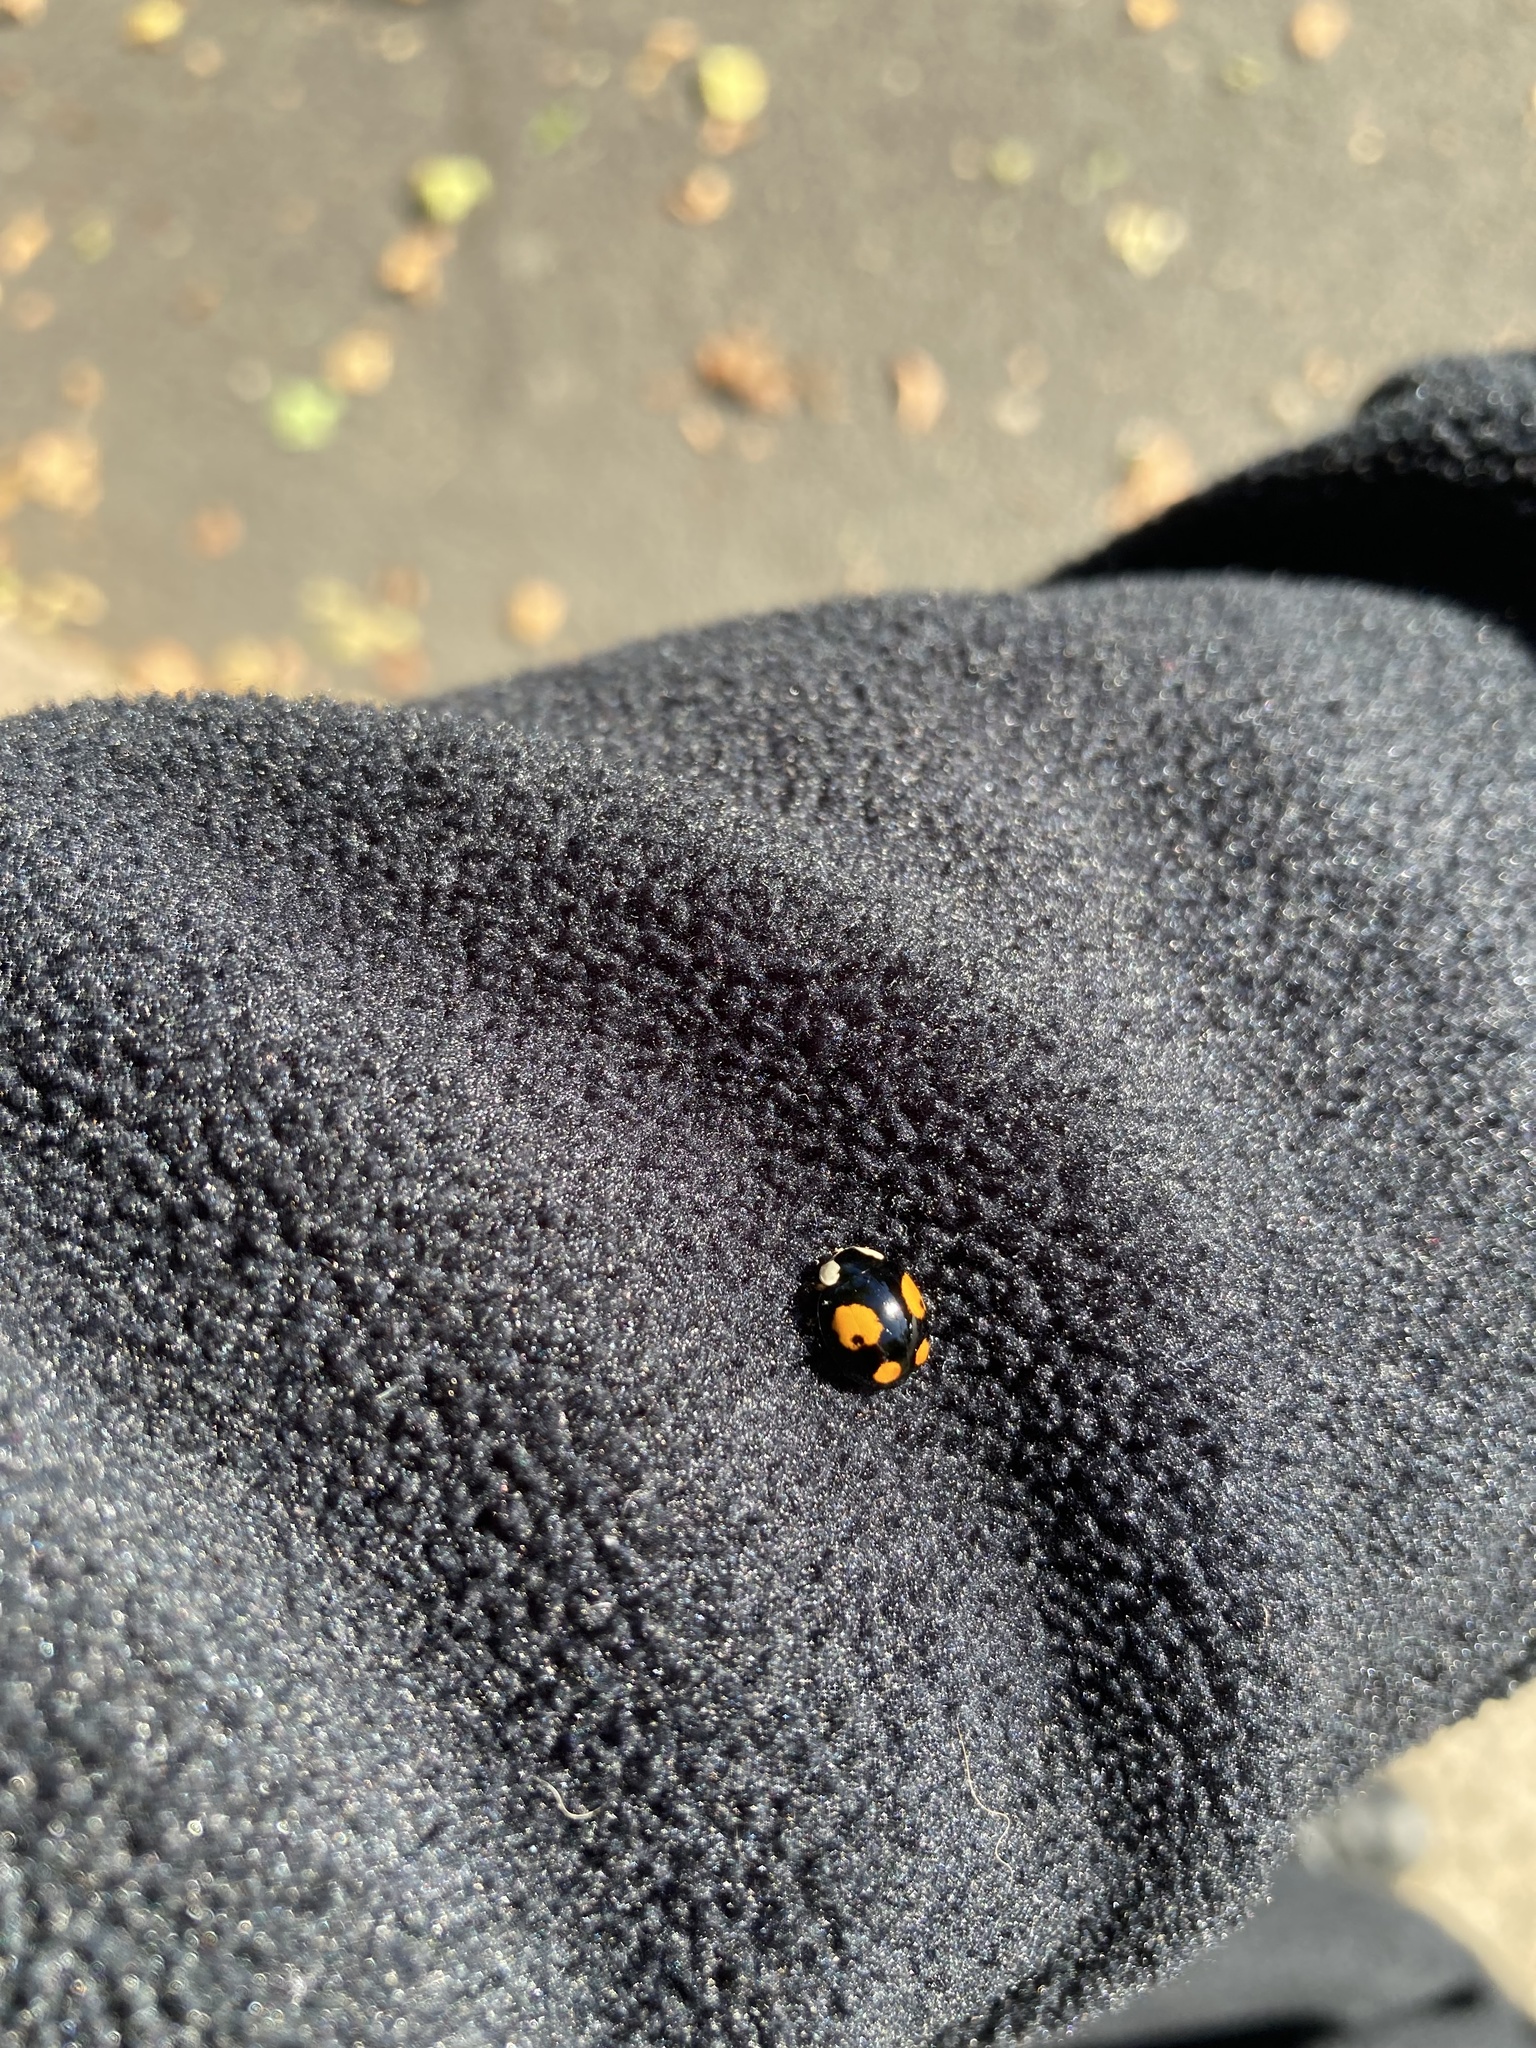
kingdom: Animalia
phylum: Arthropoda
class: Insecta
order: Coleoptera
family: Coccinellidae
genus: Harmonia
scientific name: Harmonia axyridis
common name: Harlequin ladybird
